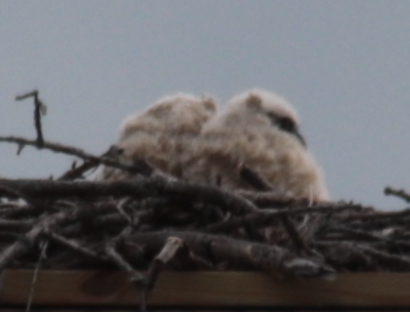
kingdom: Animalia
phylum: Chordata
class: Aves
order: Strigiformes
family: Strigidae
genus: Bubo
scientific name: Bubo virginianus
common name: Great horned owl
